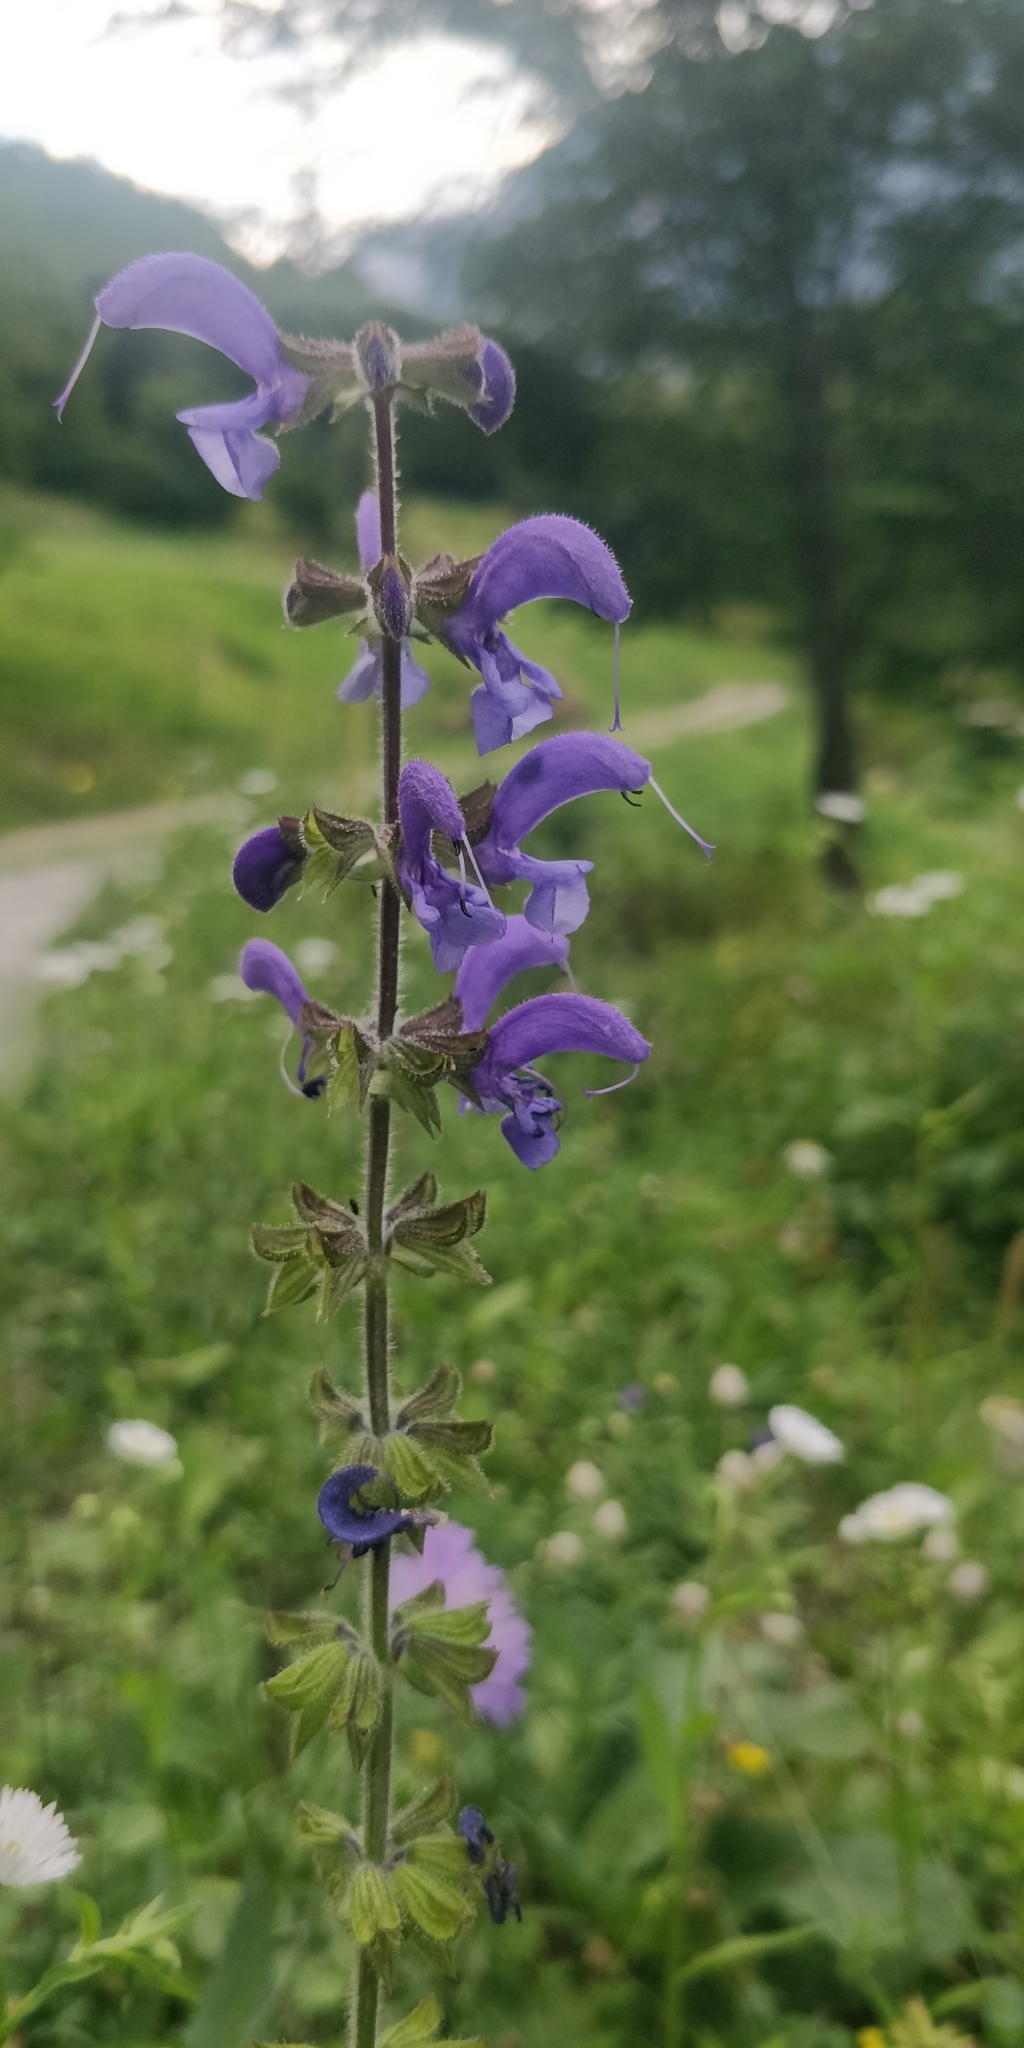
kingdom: Plantae
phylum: Tracheophyta
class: Magnoliopsida
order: Lamiales
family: Lamiaceae
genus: Salvia
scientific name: Salvia pratensis
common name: Meadow sage
